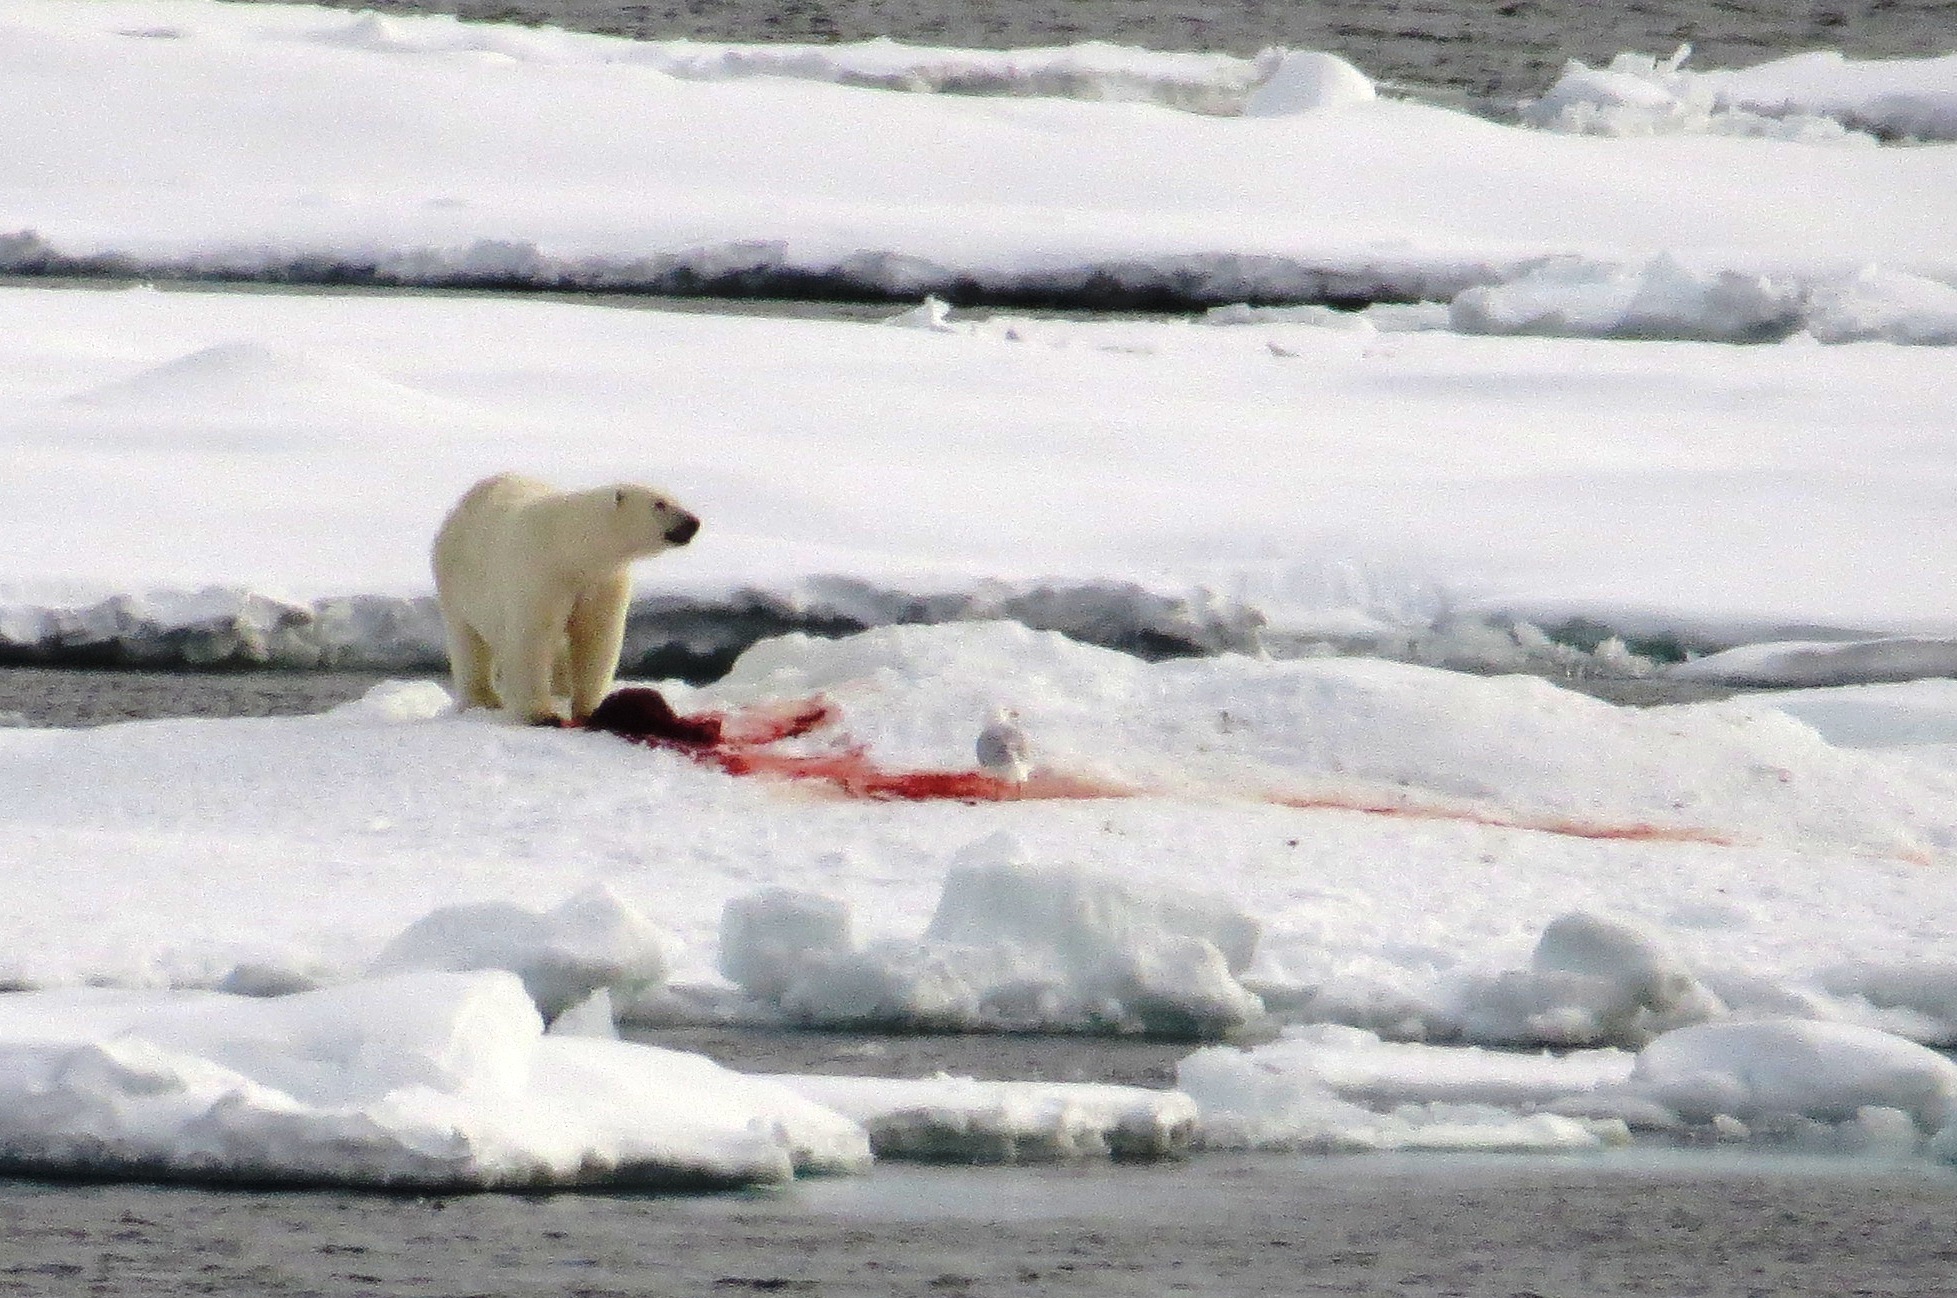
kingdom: Animalia
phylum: Chordata
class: Mammalia
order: Carnivora
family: Ursidae
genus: Ursus
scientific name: Ursus maritimus
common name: Polar bear
